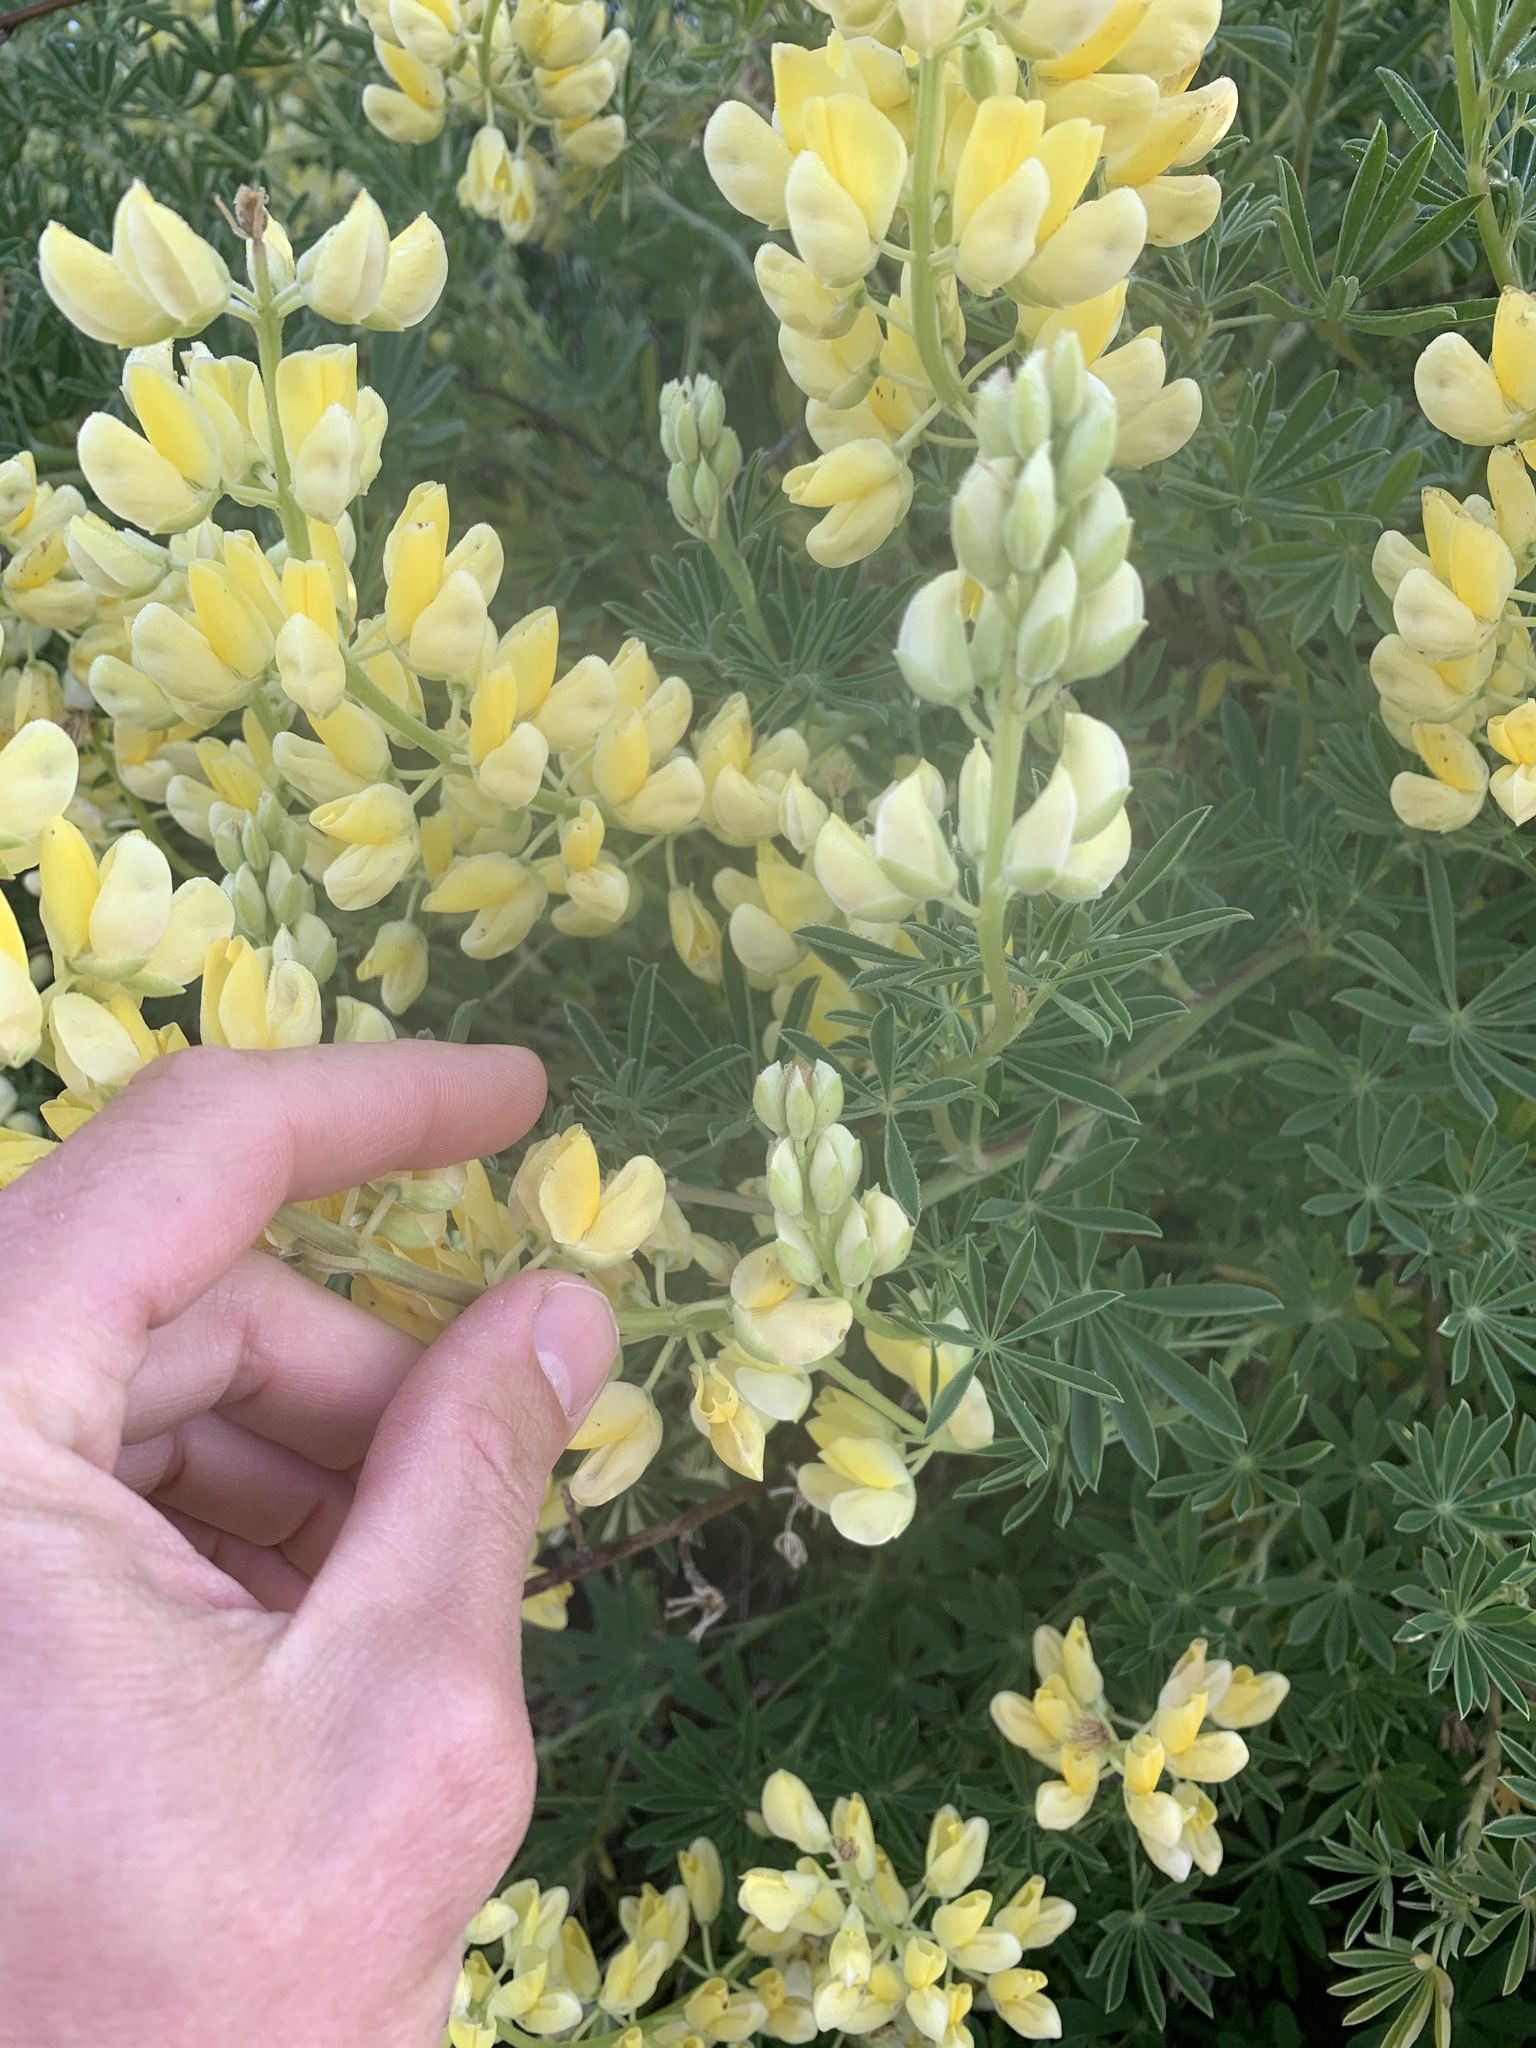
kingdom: Plantae
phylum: Tracheophyta
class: Magnoliopsida
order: Fabales
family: Fabaceae
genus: Lupinus
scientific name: Lupinus arboreus
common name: Yellow bush lupine
